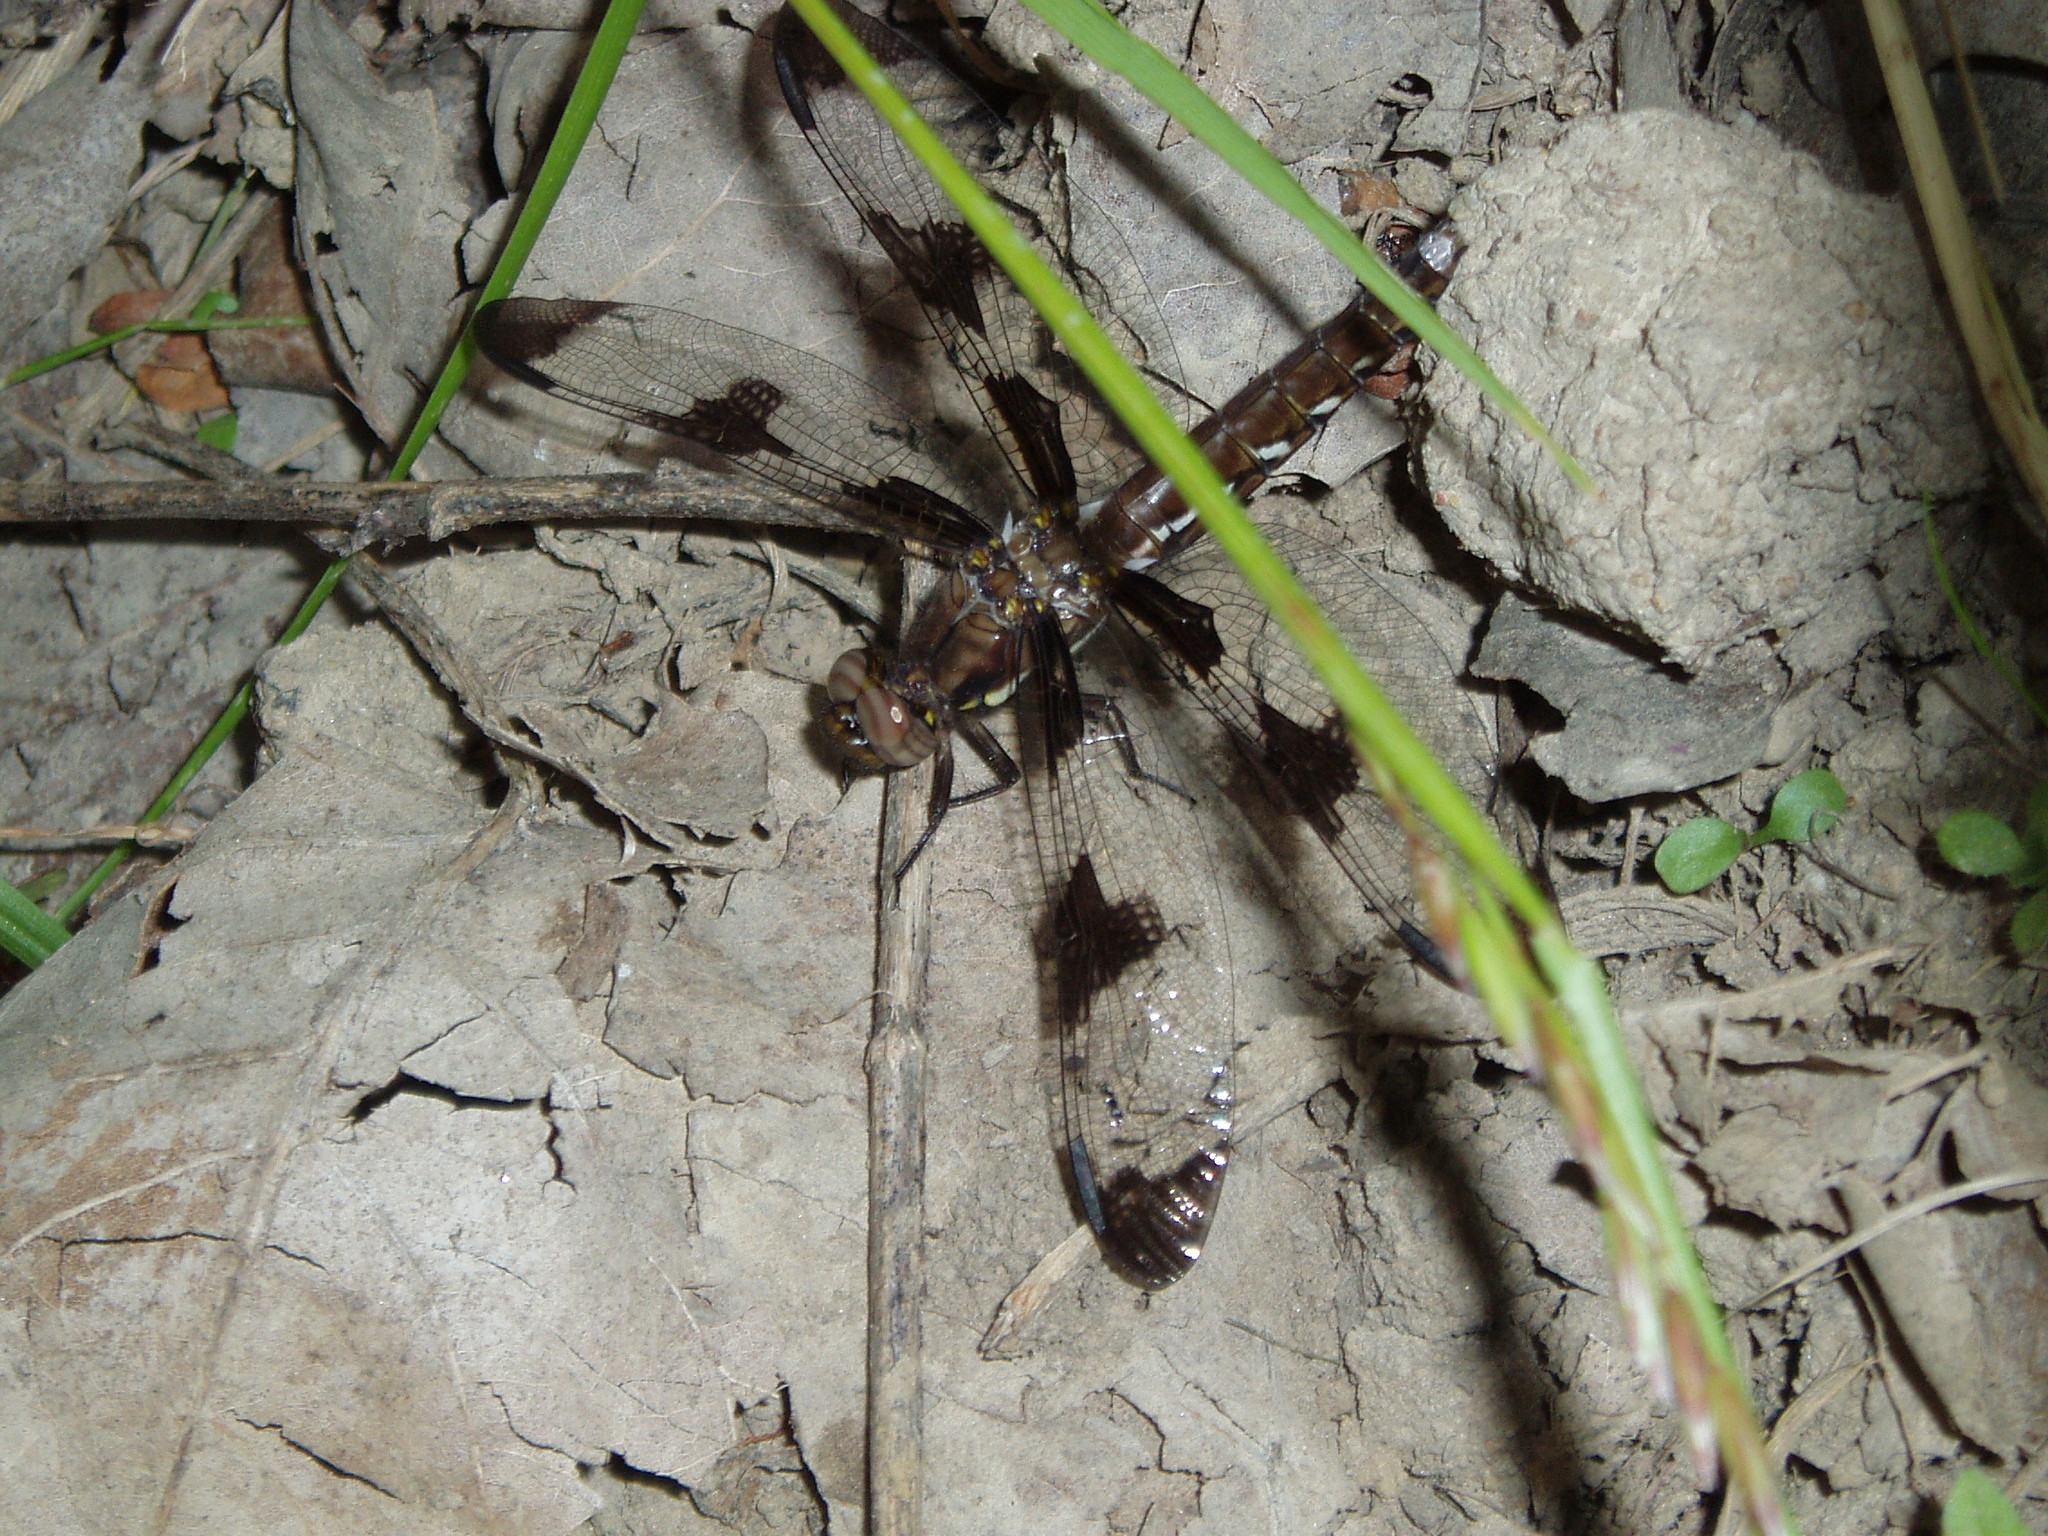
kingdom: Animalia
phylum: Arthropoda
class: Insecta
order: Odonata
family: Libellulidae
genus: Plathemis
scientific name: Plathemis lydia
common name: Common whitetail
